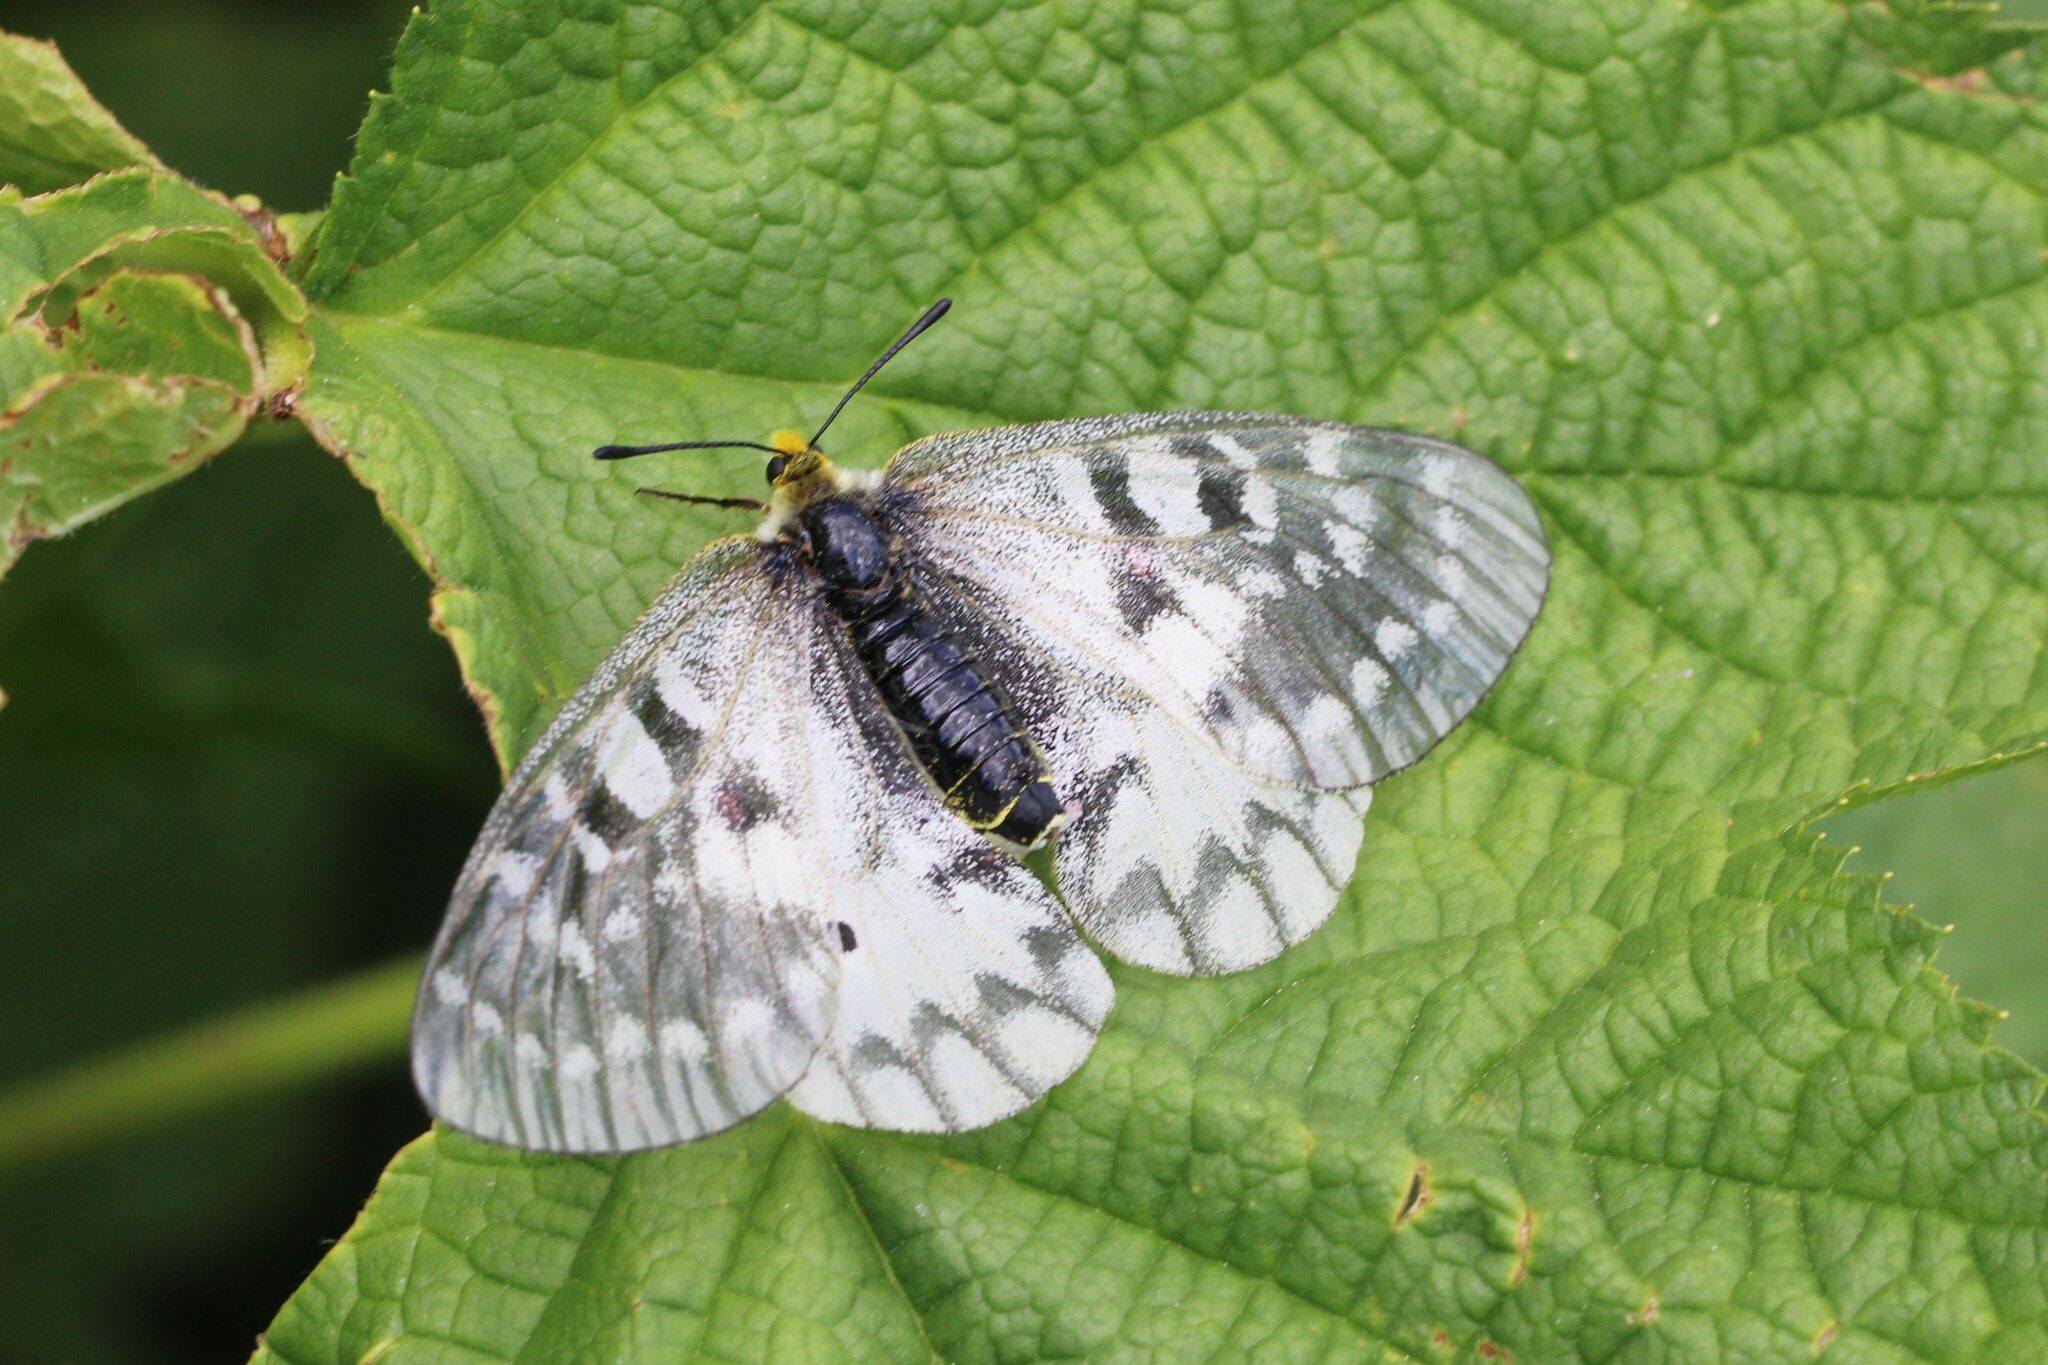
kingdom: Animalia
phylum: Arthropoda
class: Insecta
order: Lepidoptera
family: Papilionidae
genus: Parnassius
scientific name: Parnassius clodius
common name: American apollo
